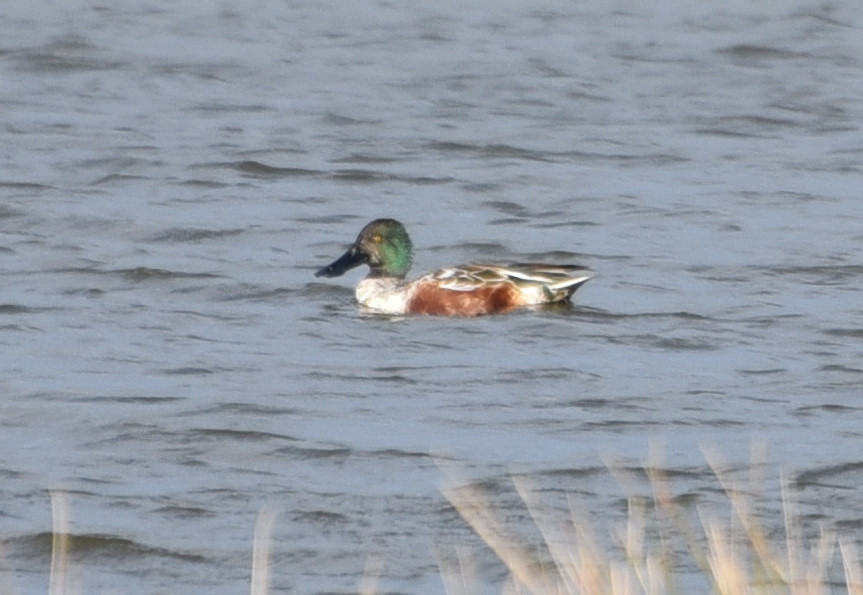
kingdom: Animalia
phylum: Chordata
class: Aves
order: Anseriformes
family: Anatidae
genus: Spatula
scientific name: Spatula clypeata
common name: Northern shoveler
